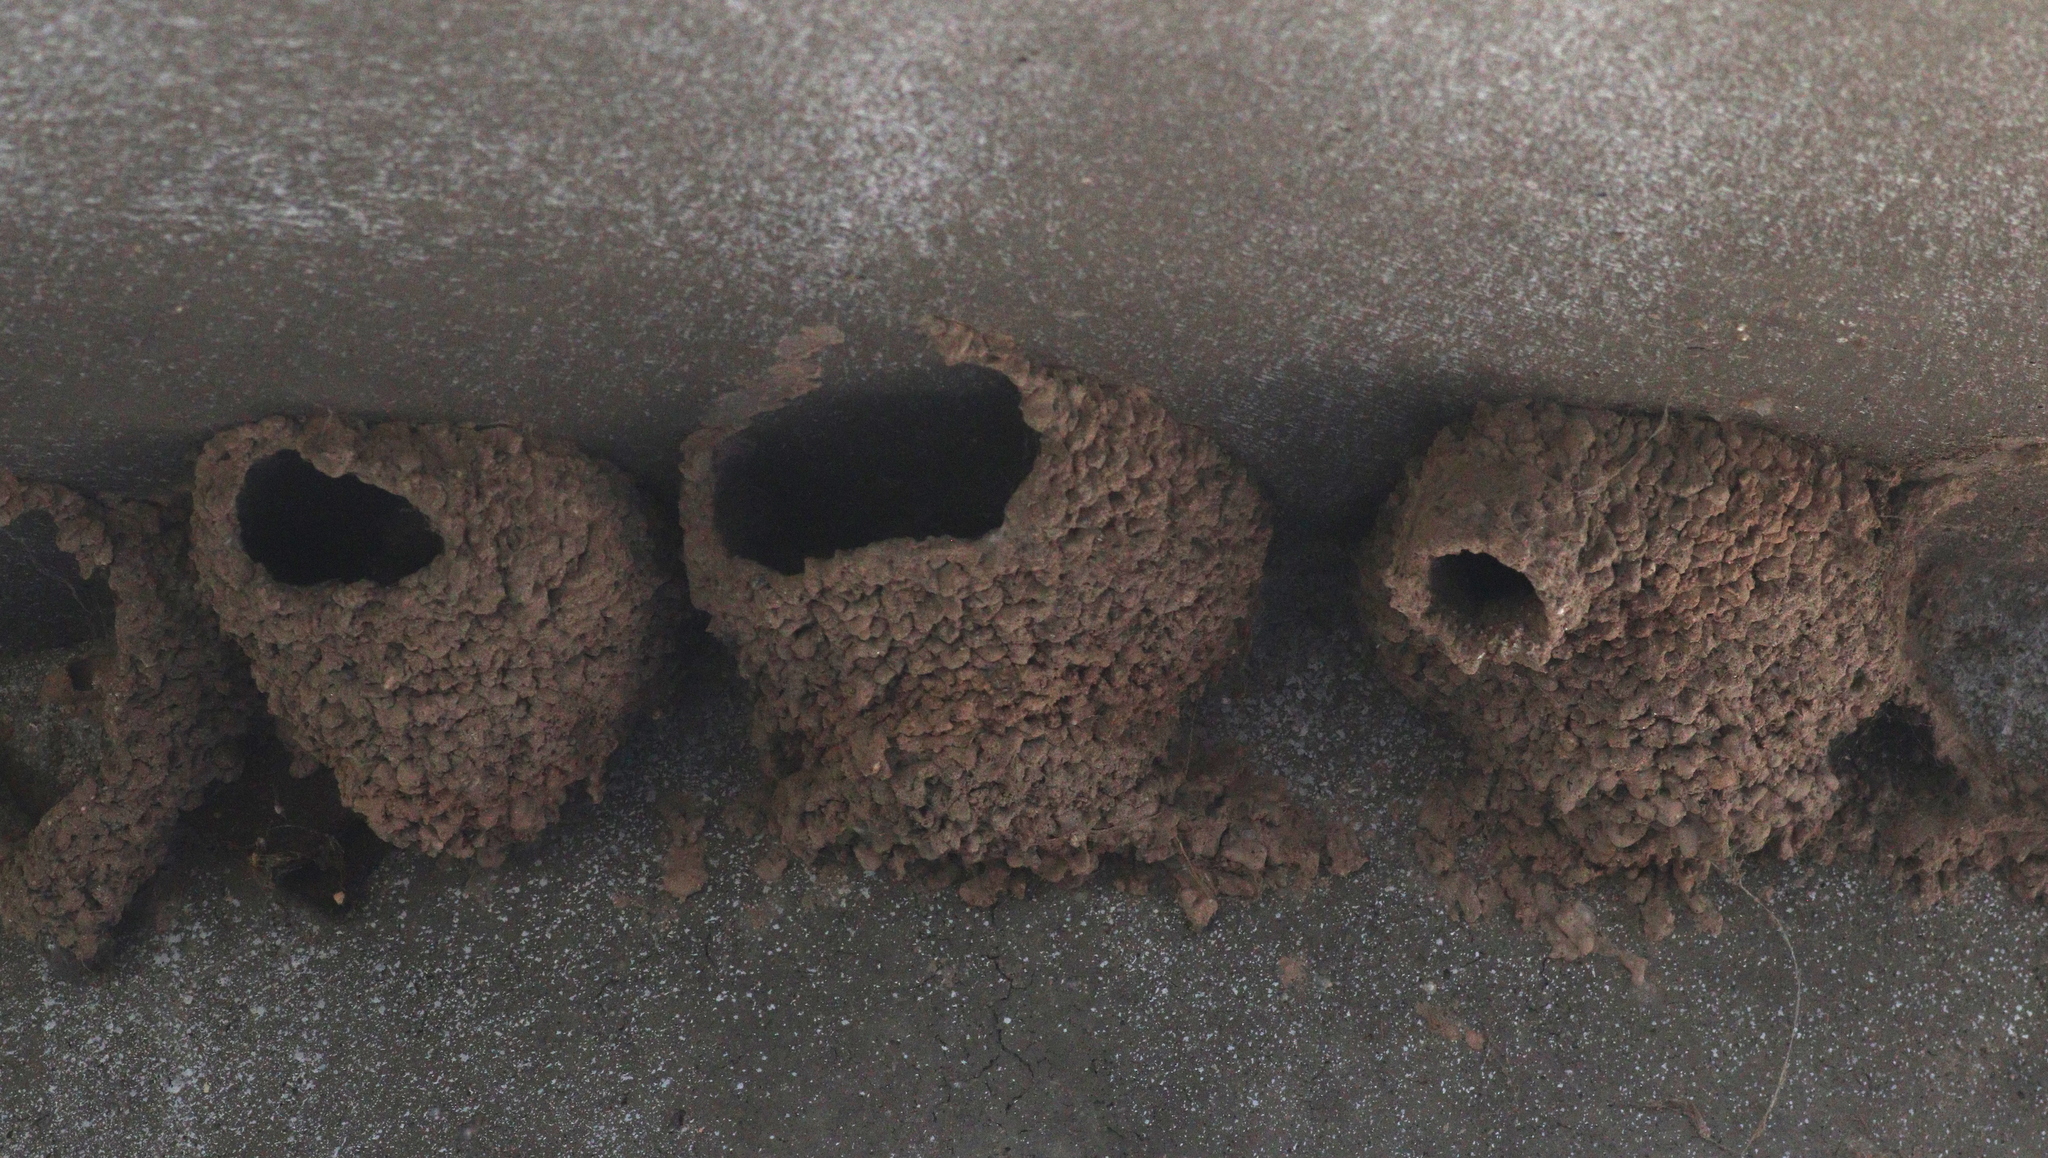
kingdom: Animalia
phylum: Chordata
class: Aves
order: Passeriformes
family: Hirundinidae
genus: Petrochelidon
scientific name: Petrochelidon pyrrhonota
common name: American cliff swallow
